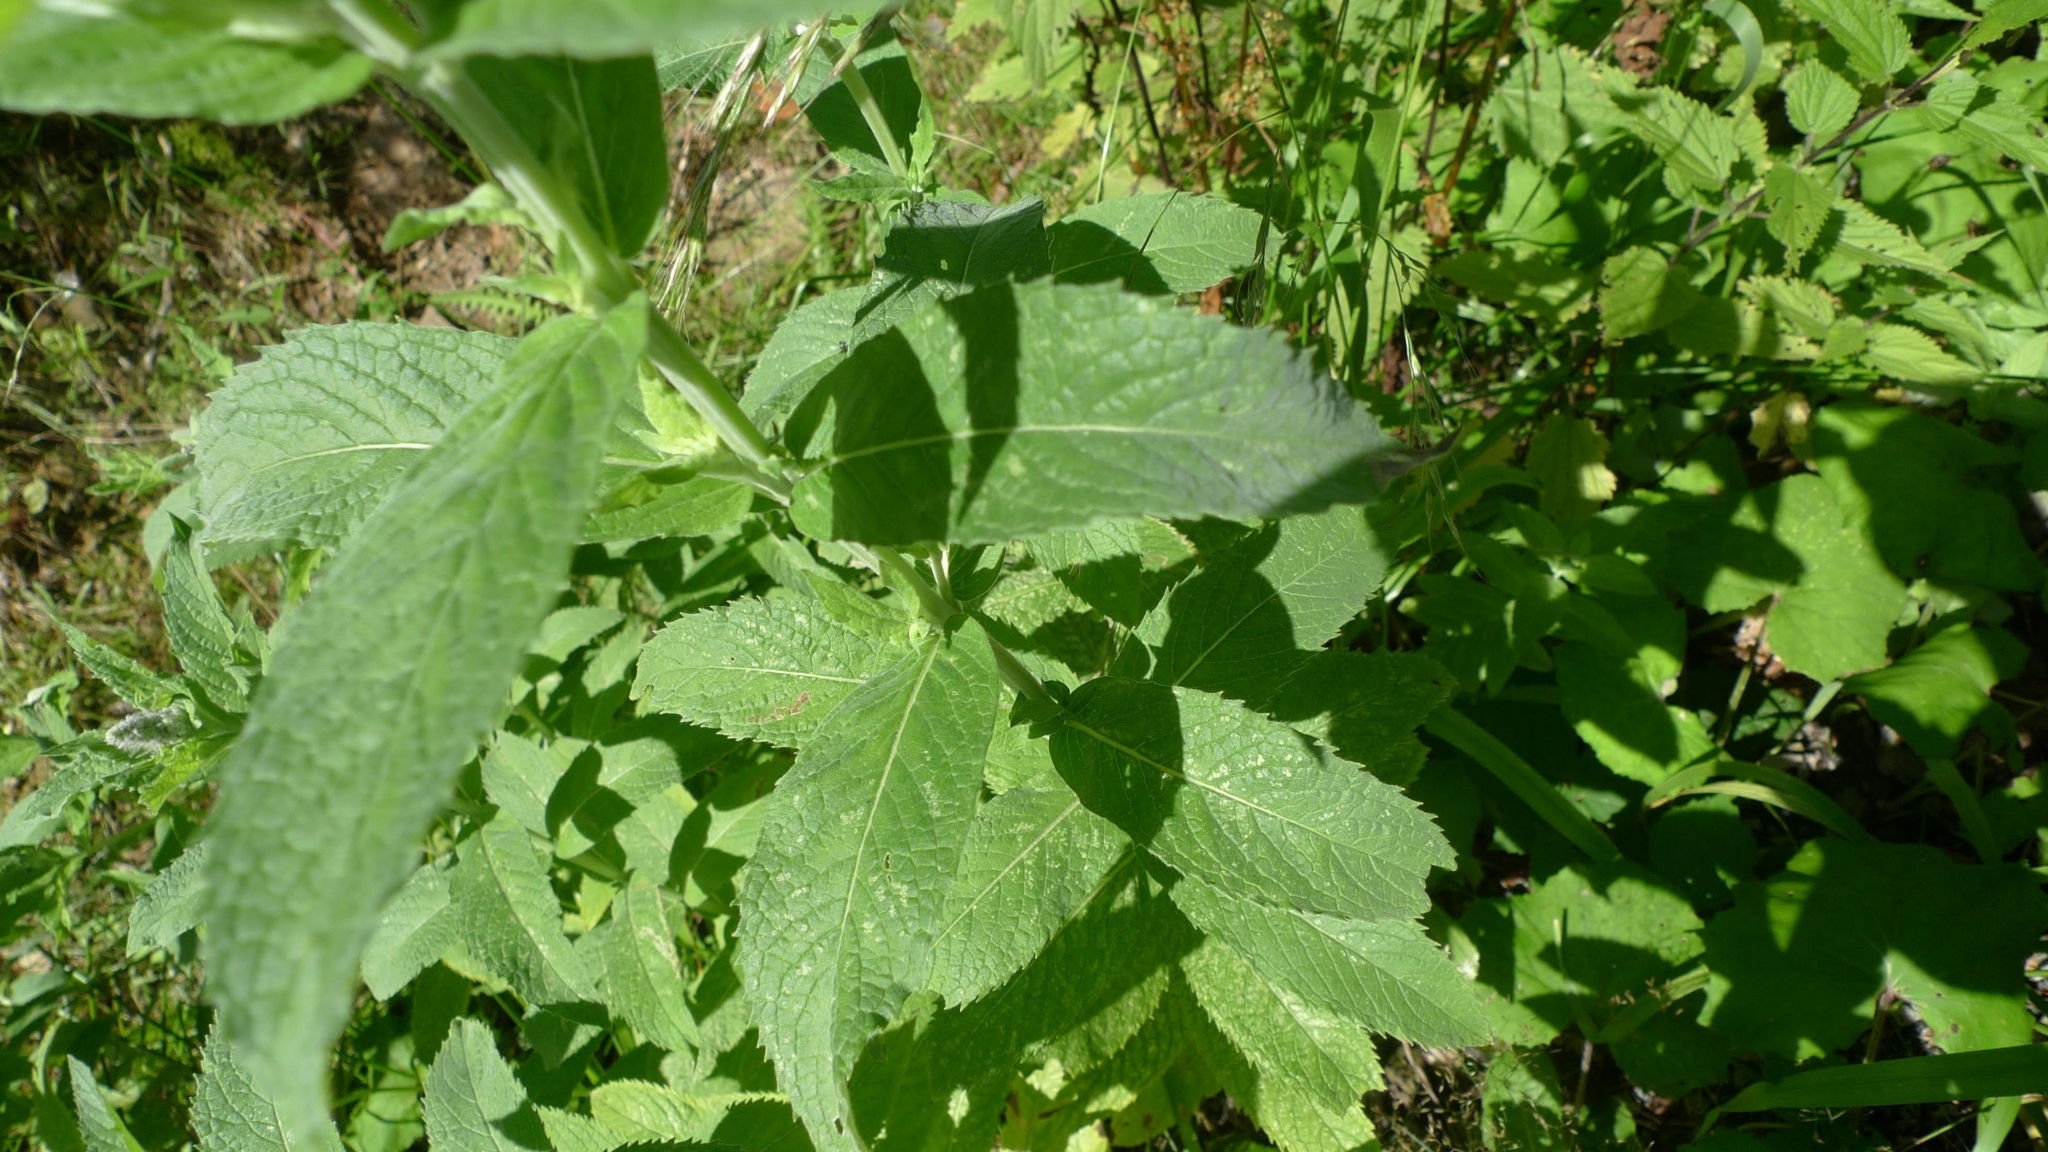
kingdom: Plantae
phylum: Tracheophyta
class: Magnoliopsida
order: Lamiales
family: Lamiaceae
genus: Mentha
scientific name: Mentha longifolia
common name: Horse mint
